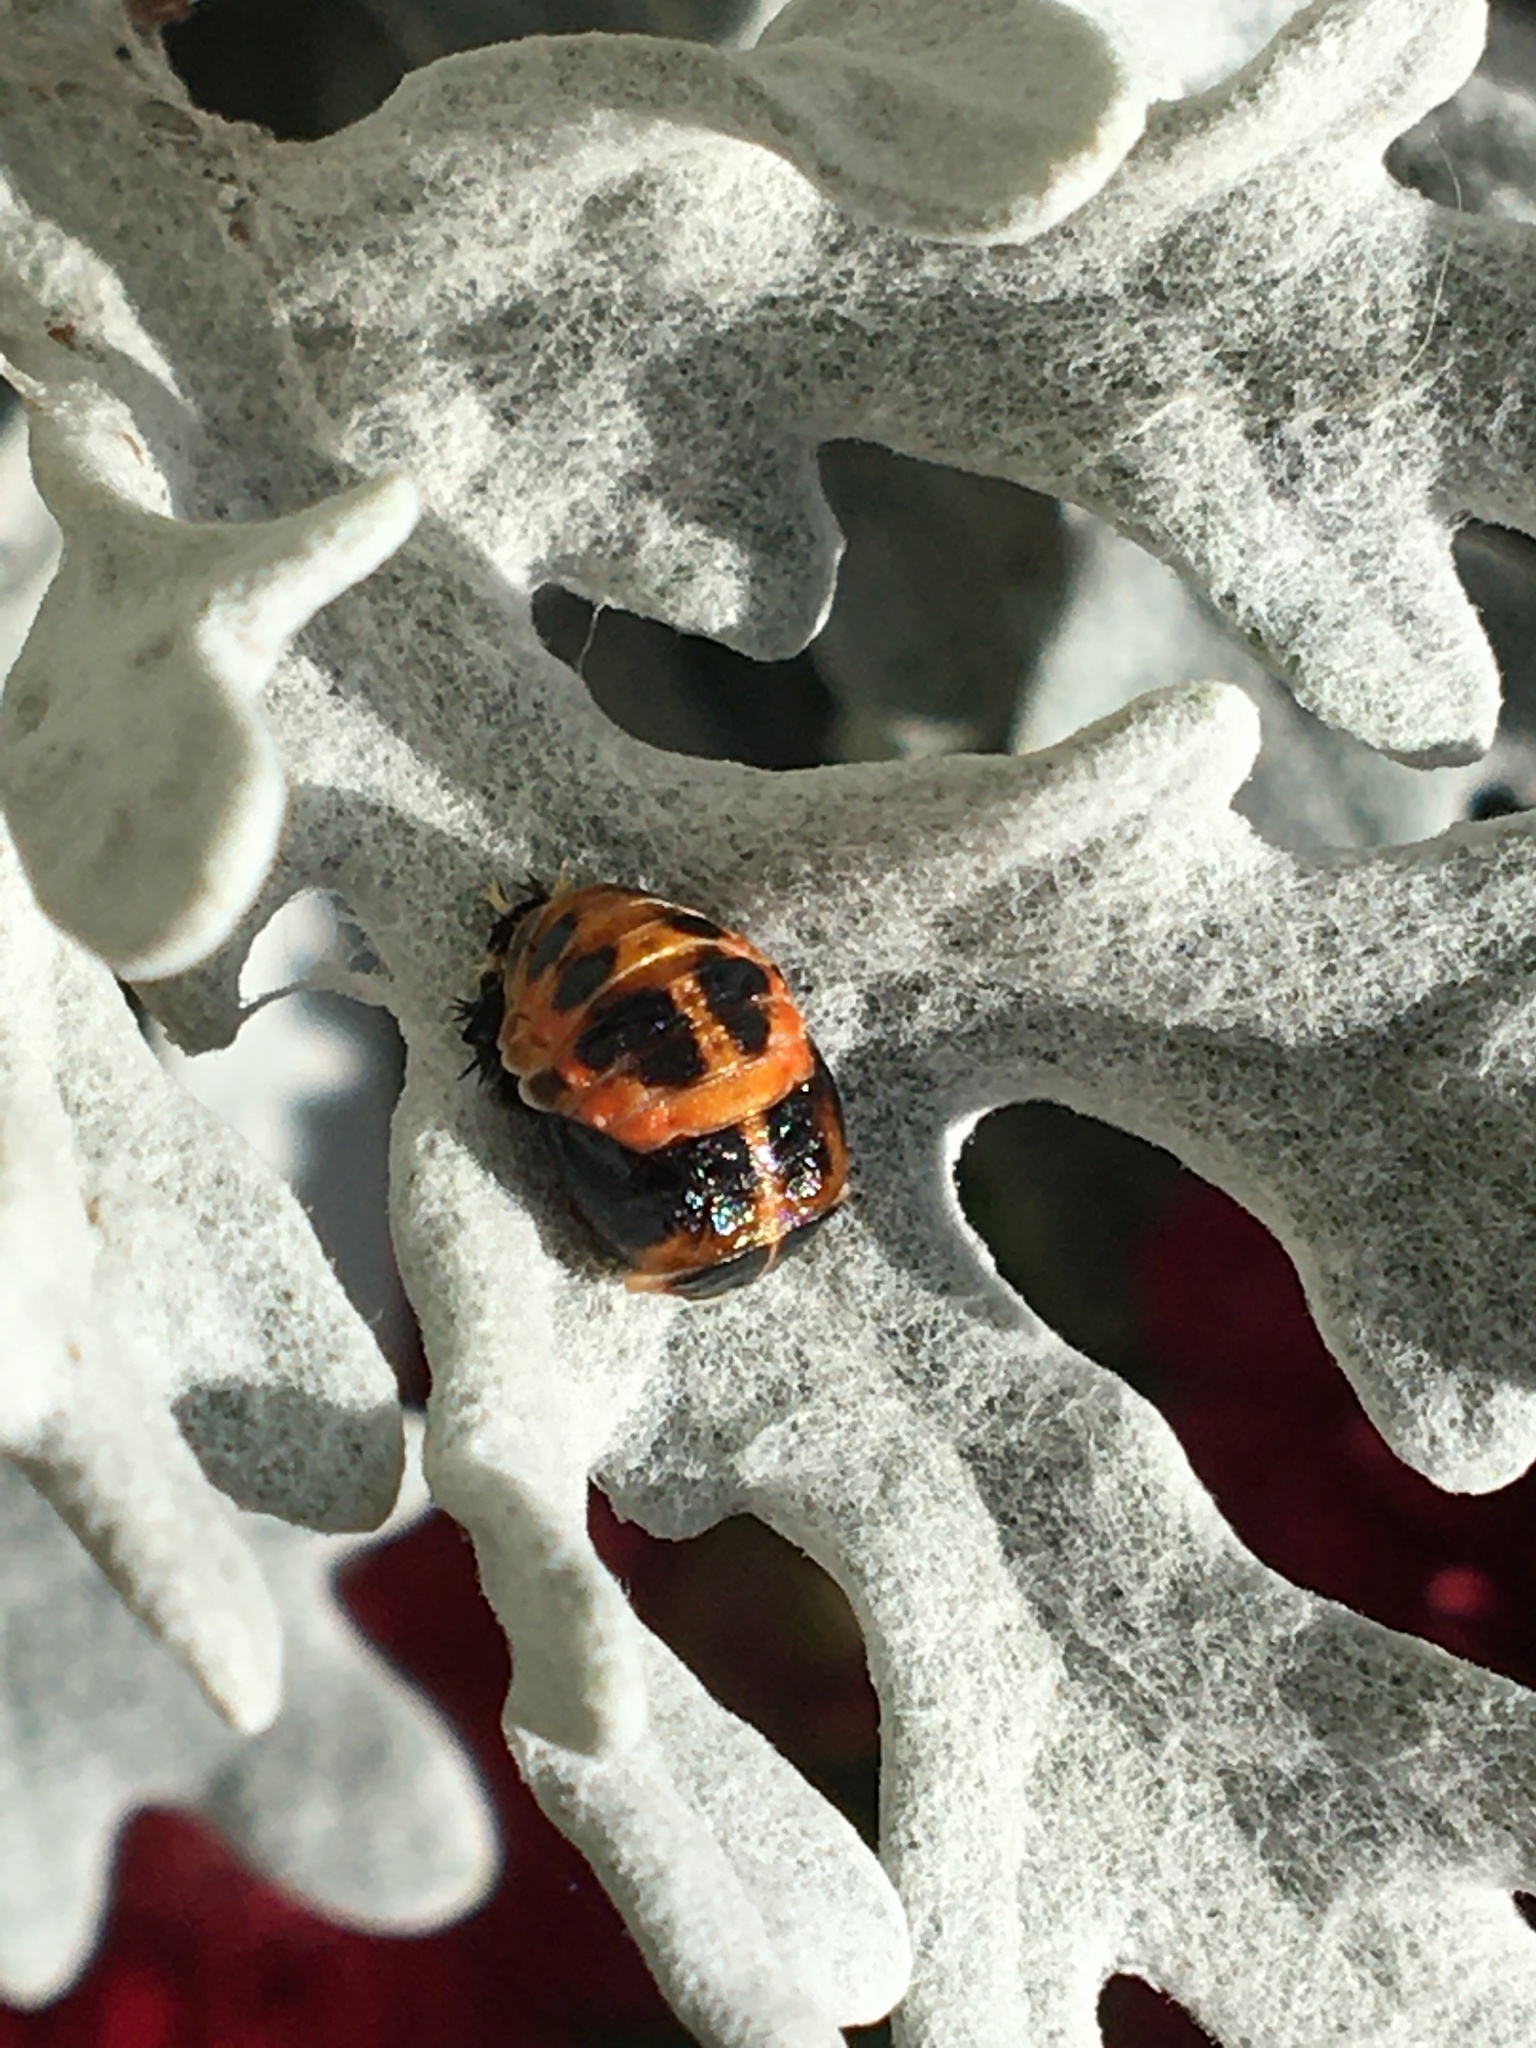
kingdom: Animalia
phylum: Arthropoda
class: Insecta
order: Coleoptera
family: Coccinellidae
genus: Harmonia
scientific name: Harmonia axyridis
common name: Harlequin ladybird
